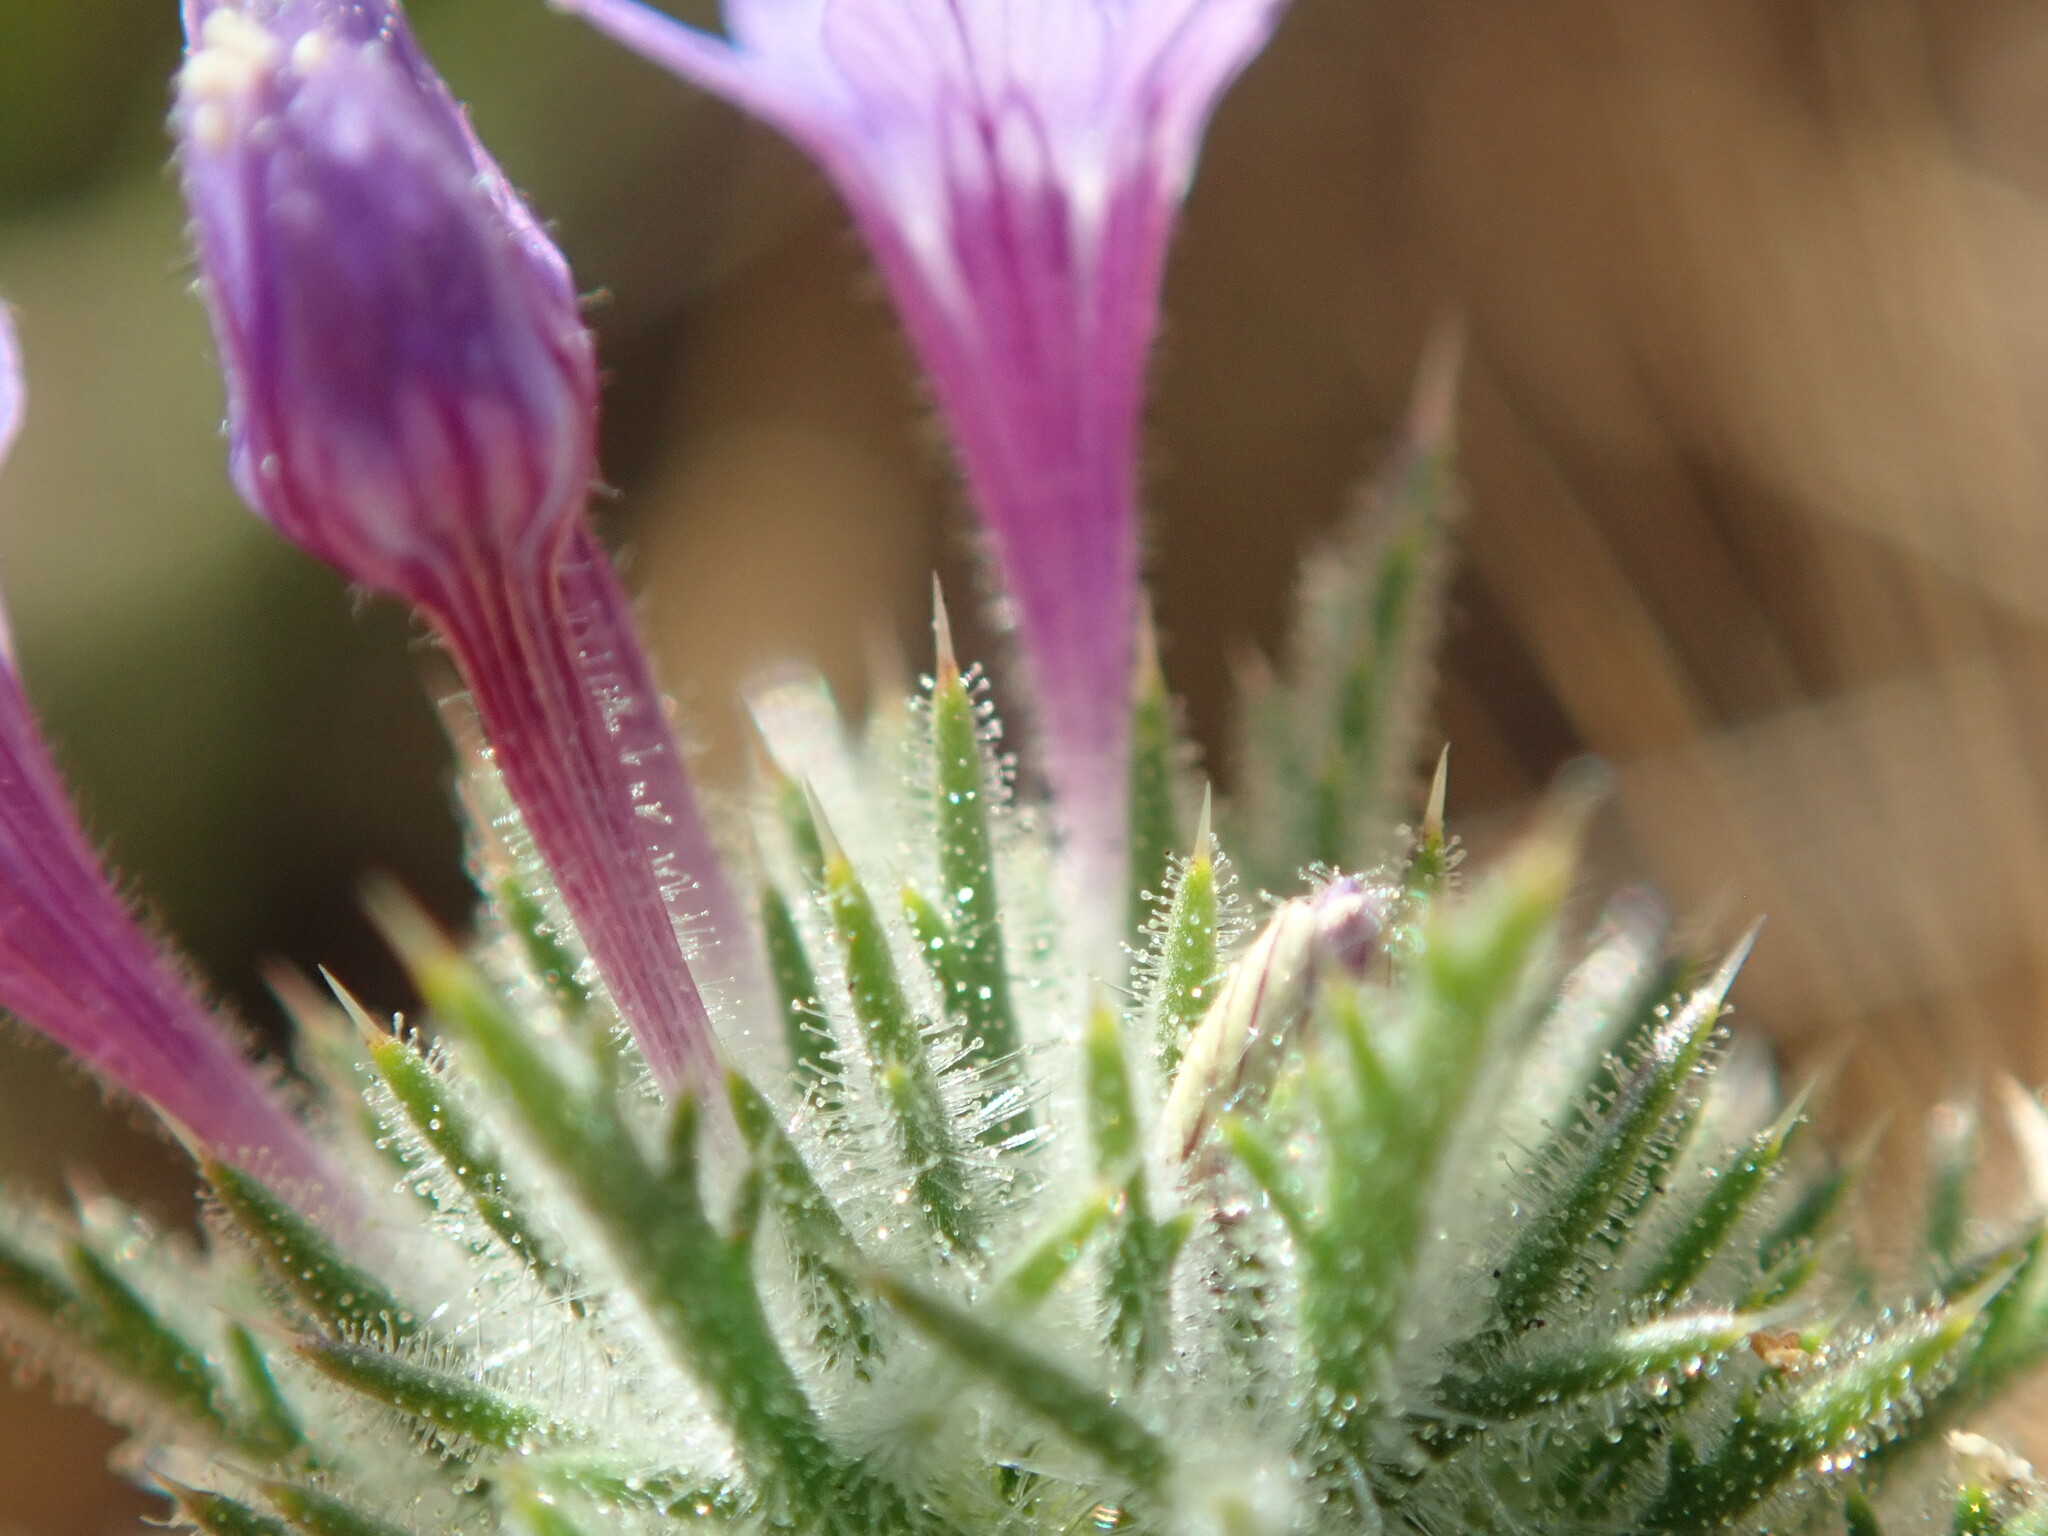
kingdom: Plantae
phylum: Tracheophyta
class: Magnoliopsida
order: Ericales
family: Polemoniaceae
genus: Navarretia
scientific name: Navarretia pubescens
